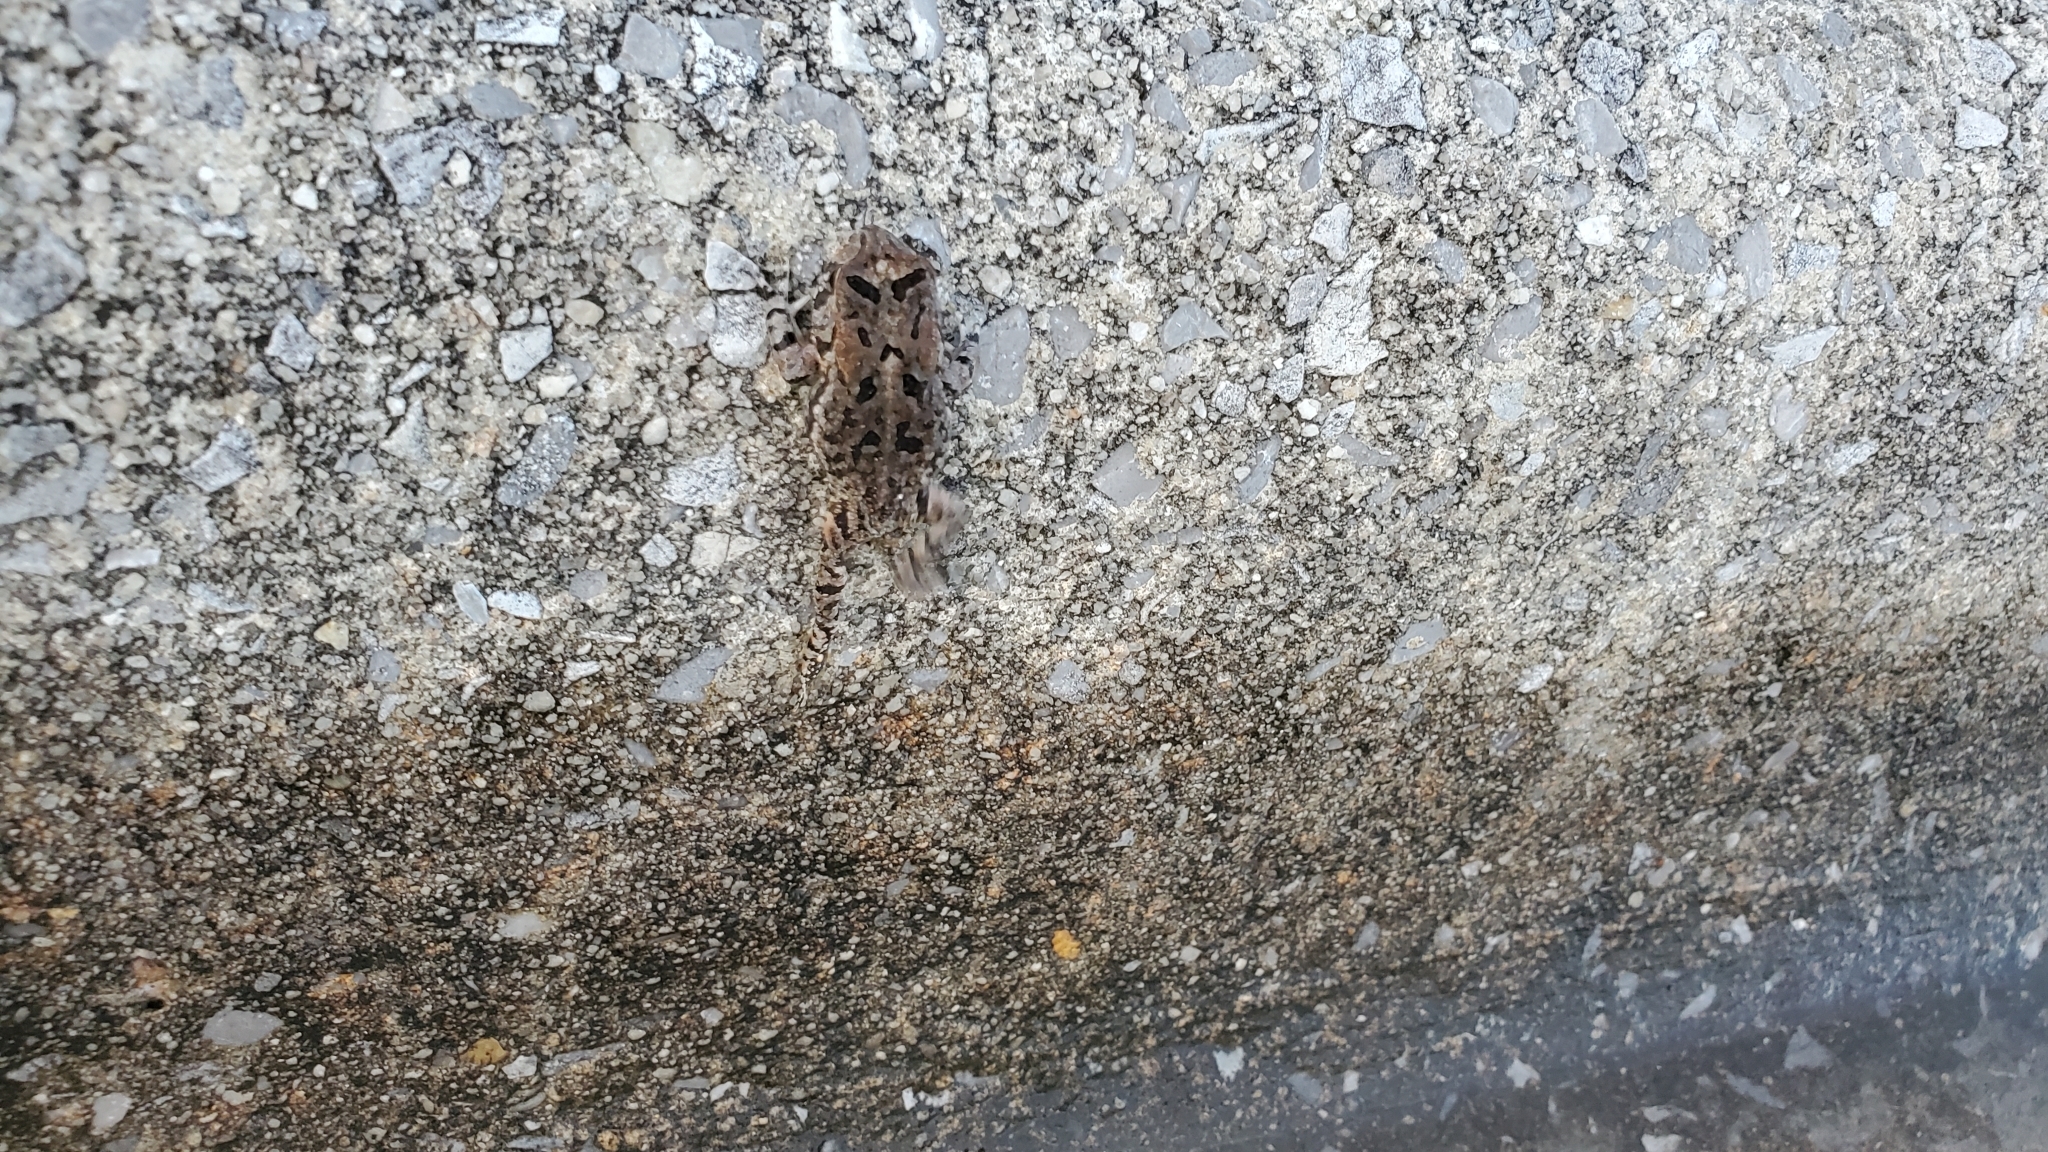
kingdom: Animalia
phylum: Chordata
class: Amphibia
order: Anura
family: Bufonidae
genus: Anaxyrus
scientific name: Anaxyrus terrestris
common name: Southern toad
